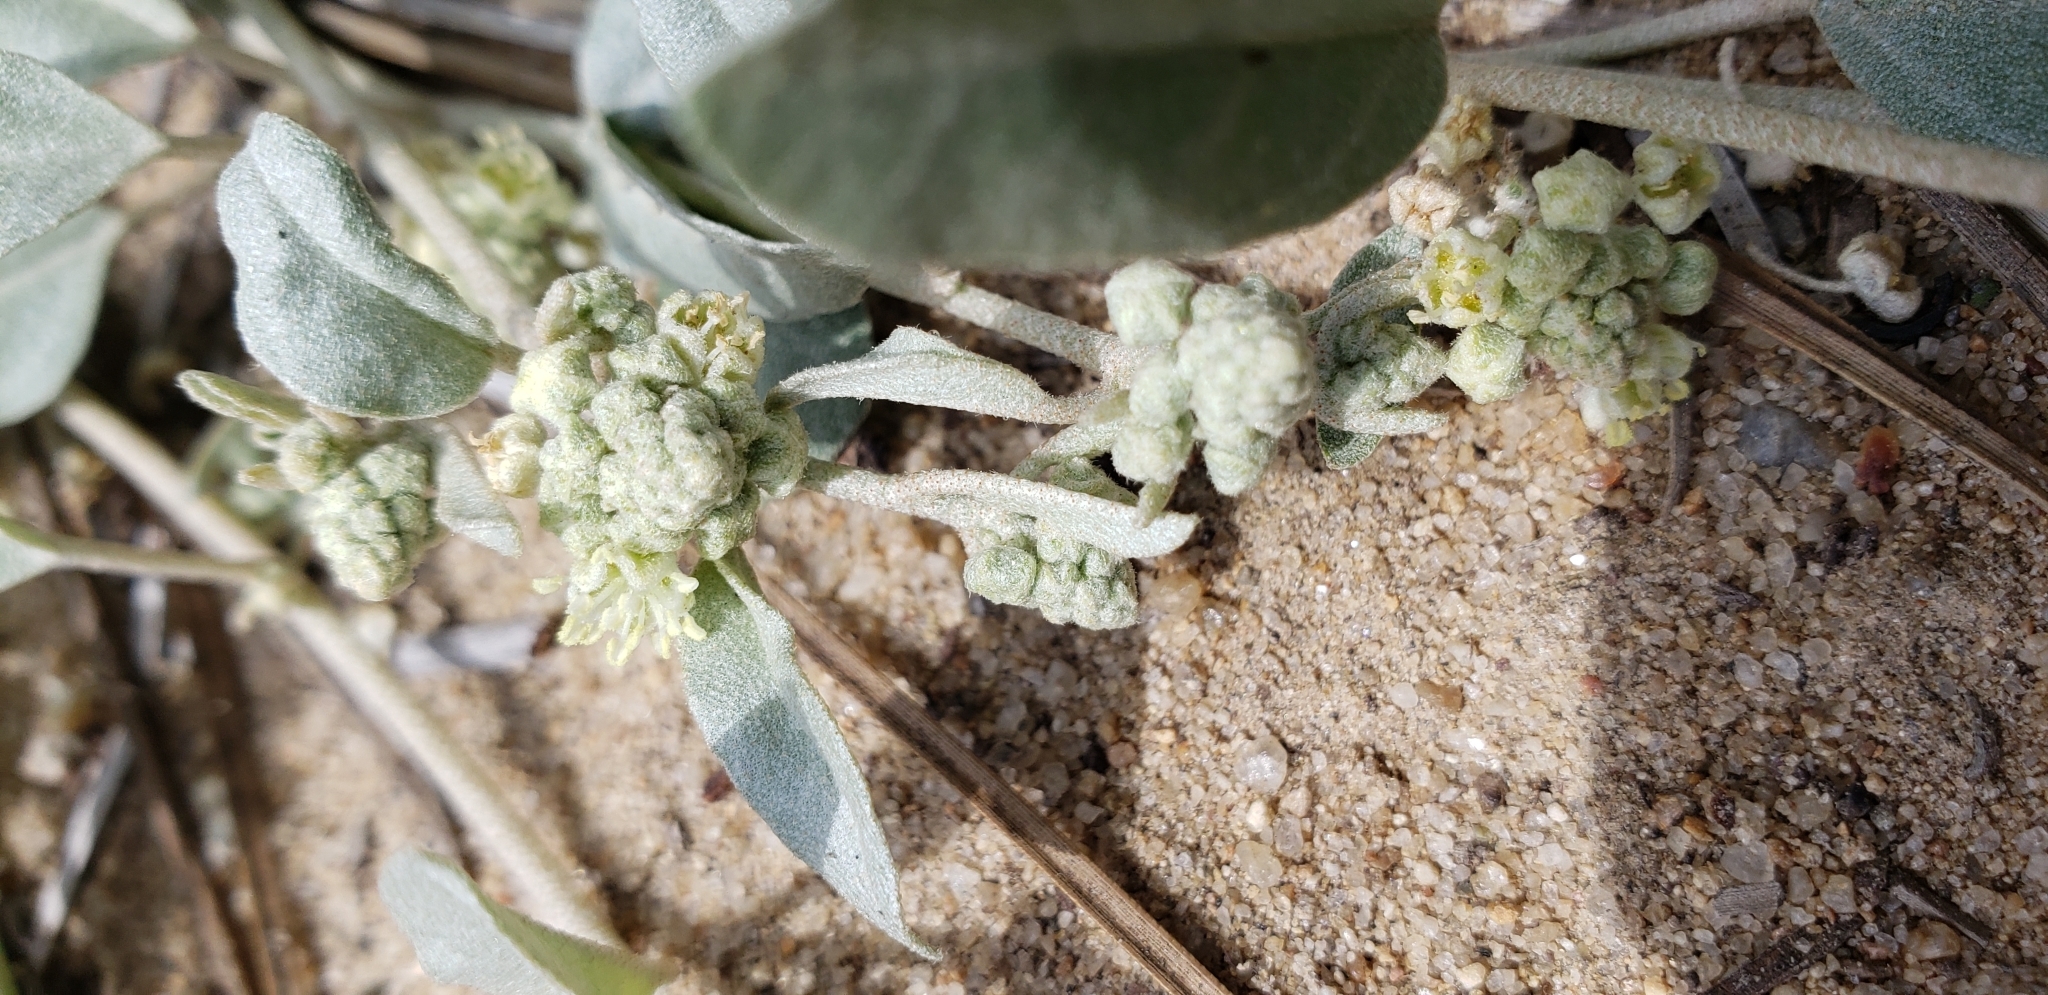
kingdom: Plantae
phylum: Tracheophyta
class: Magnoliopsida
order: Malpighiales
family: Euphorbiaceae
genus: Croton
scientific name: Croton californicus
